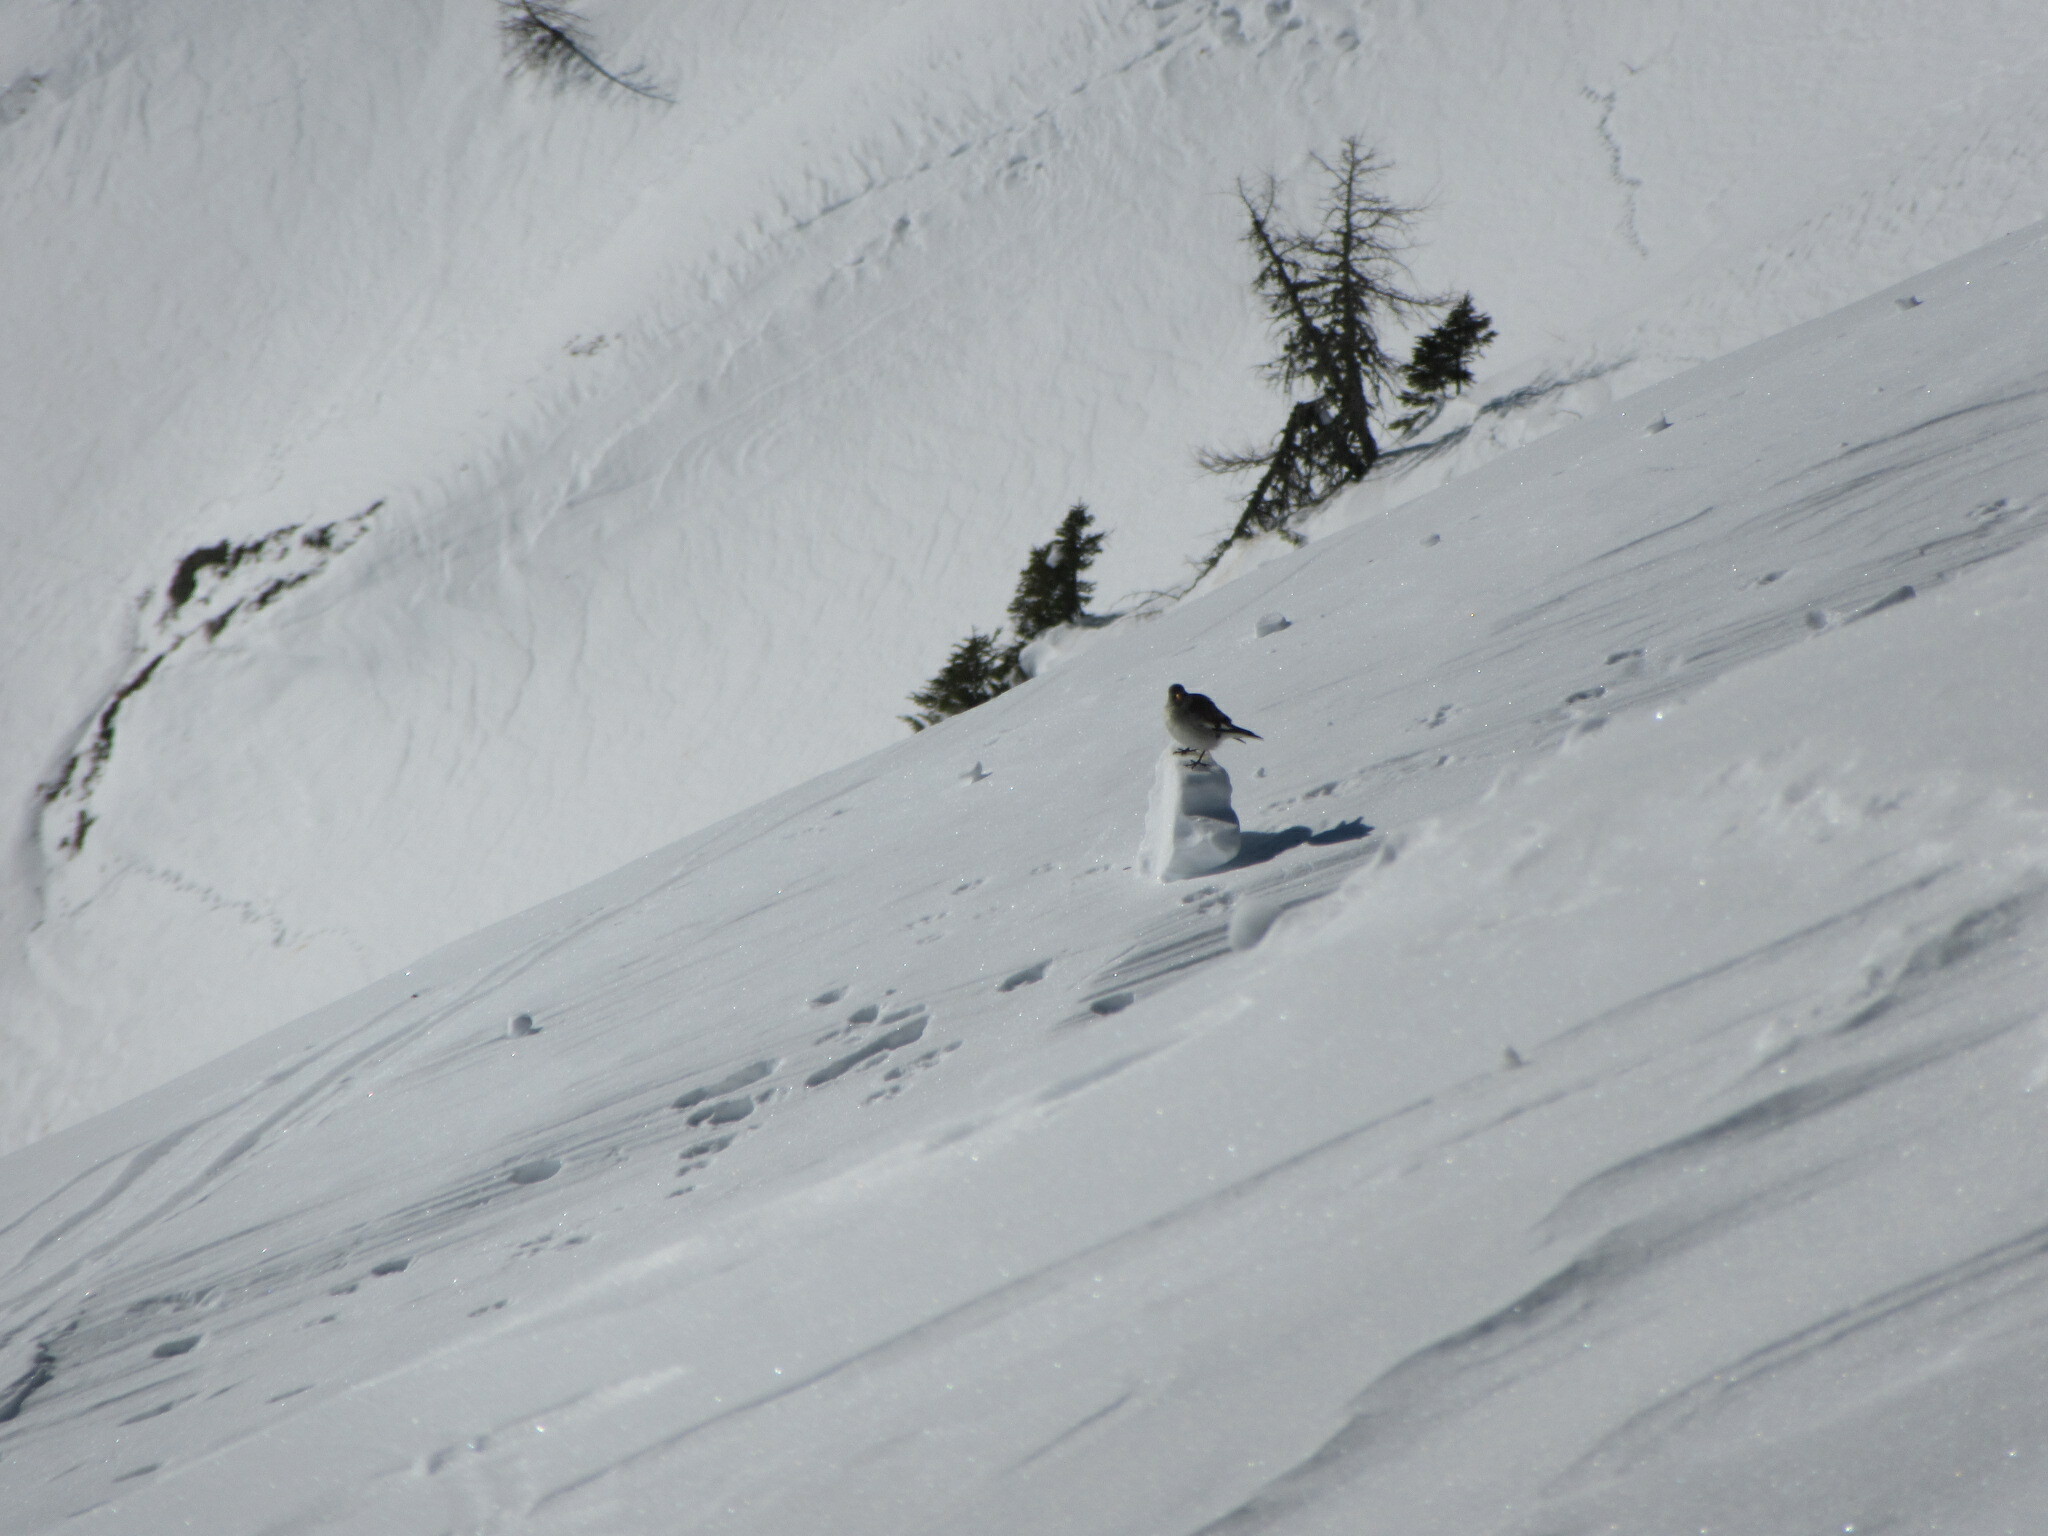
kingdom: Animalia
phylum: Chordata
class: Aves
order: Passeriformes
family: Passeridae
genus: Montifringilla
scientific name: Montifringilla nivalis
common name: White-winged snowfinch
